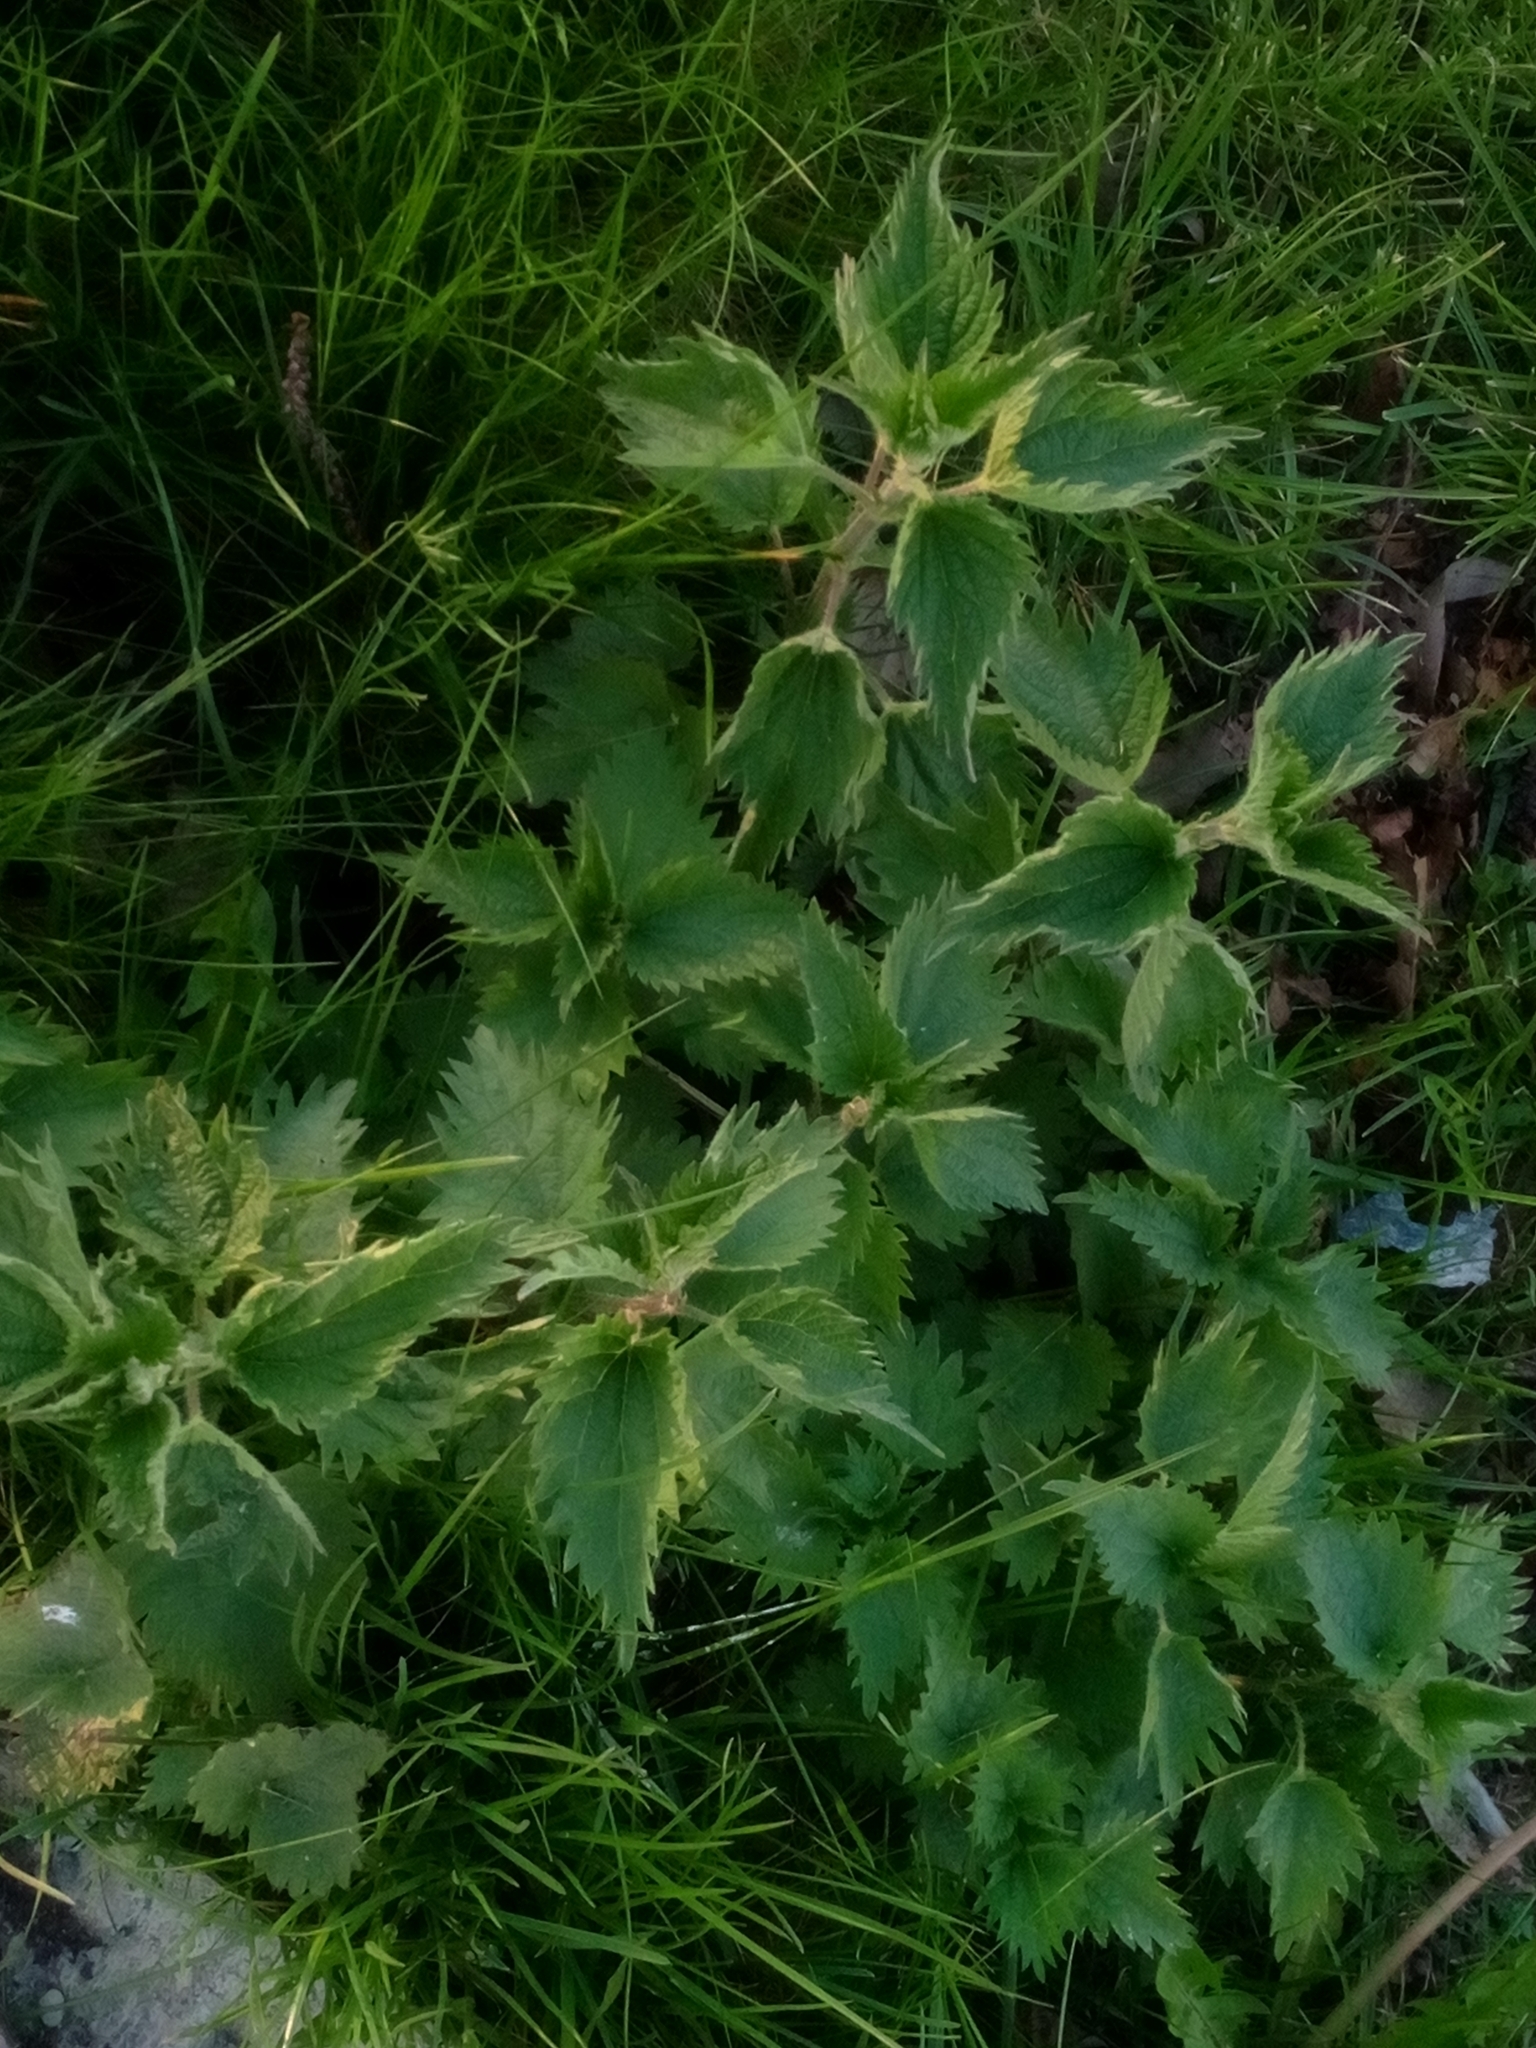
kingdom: Plantae
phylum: Tracheophyta
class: Magnoliopsida
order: Rosales
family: Urticaceae
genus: Urtica
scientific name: Urtica dioica
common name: Common nettle
